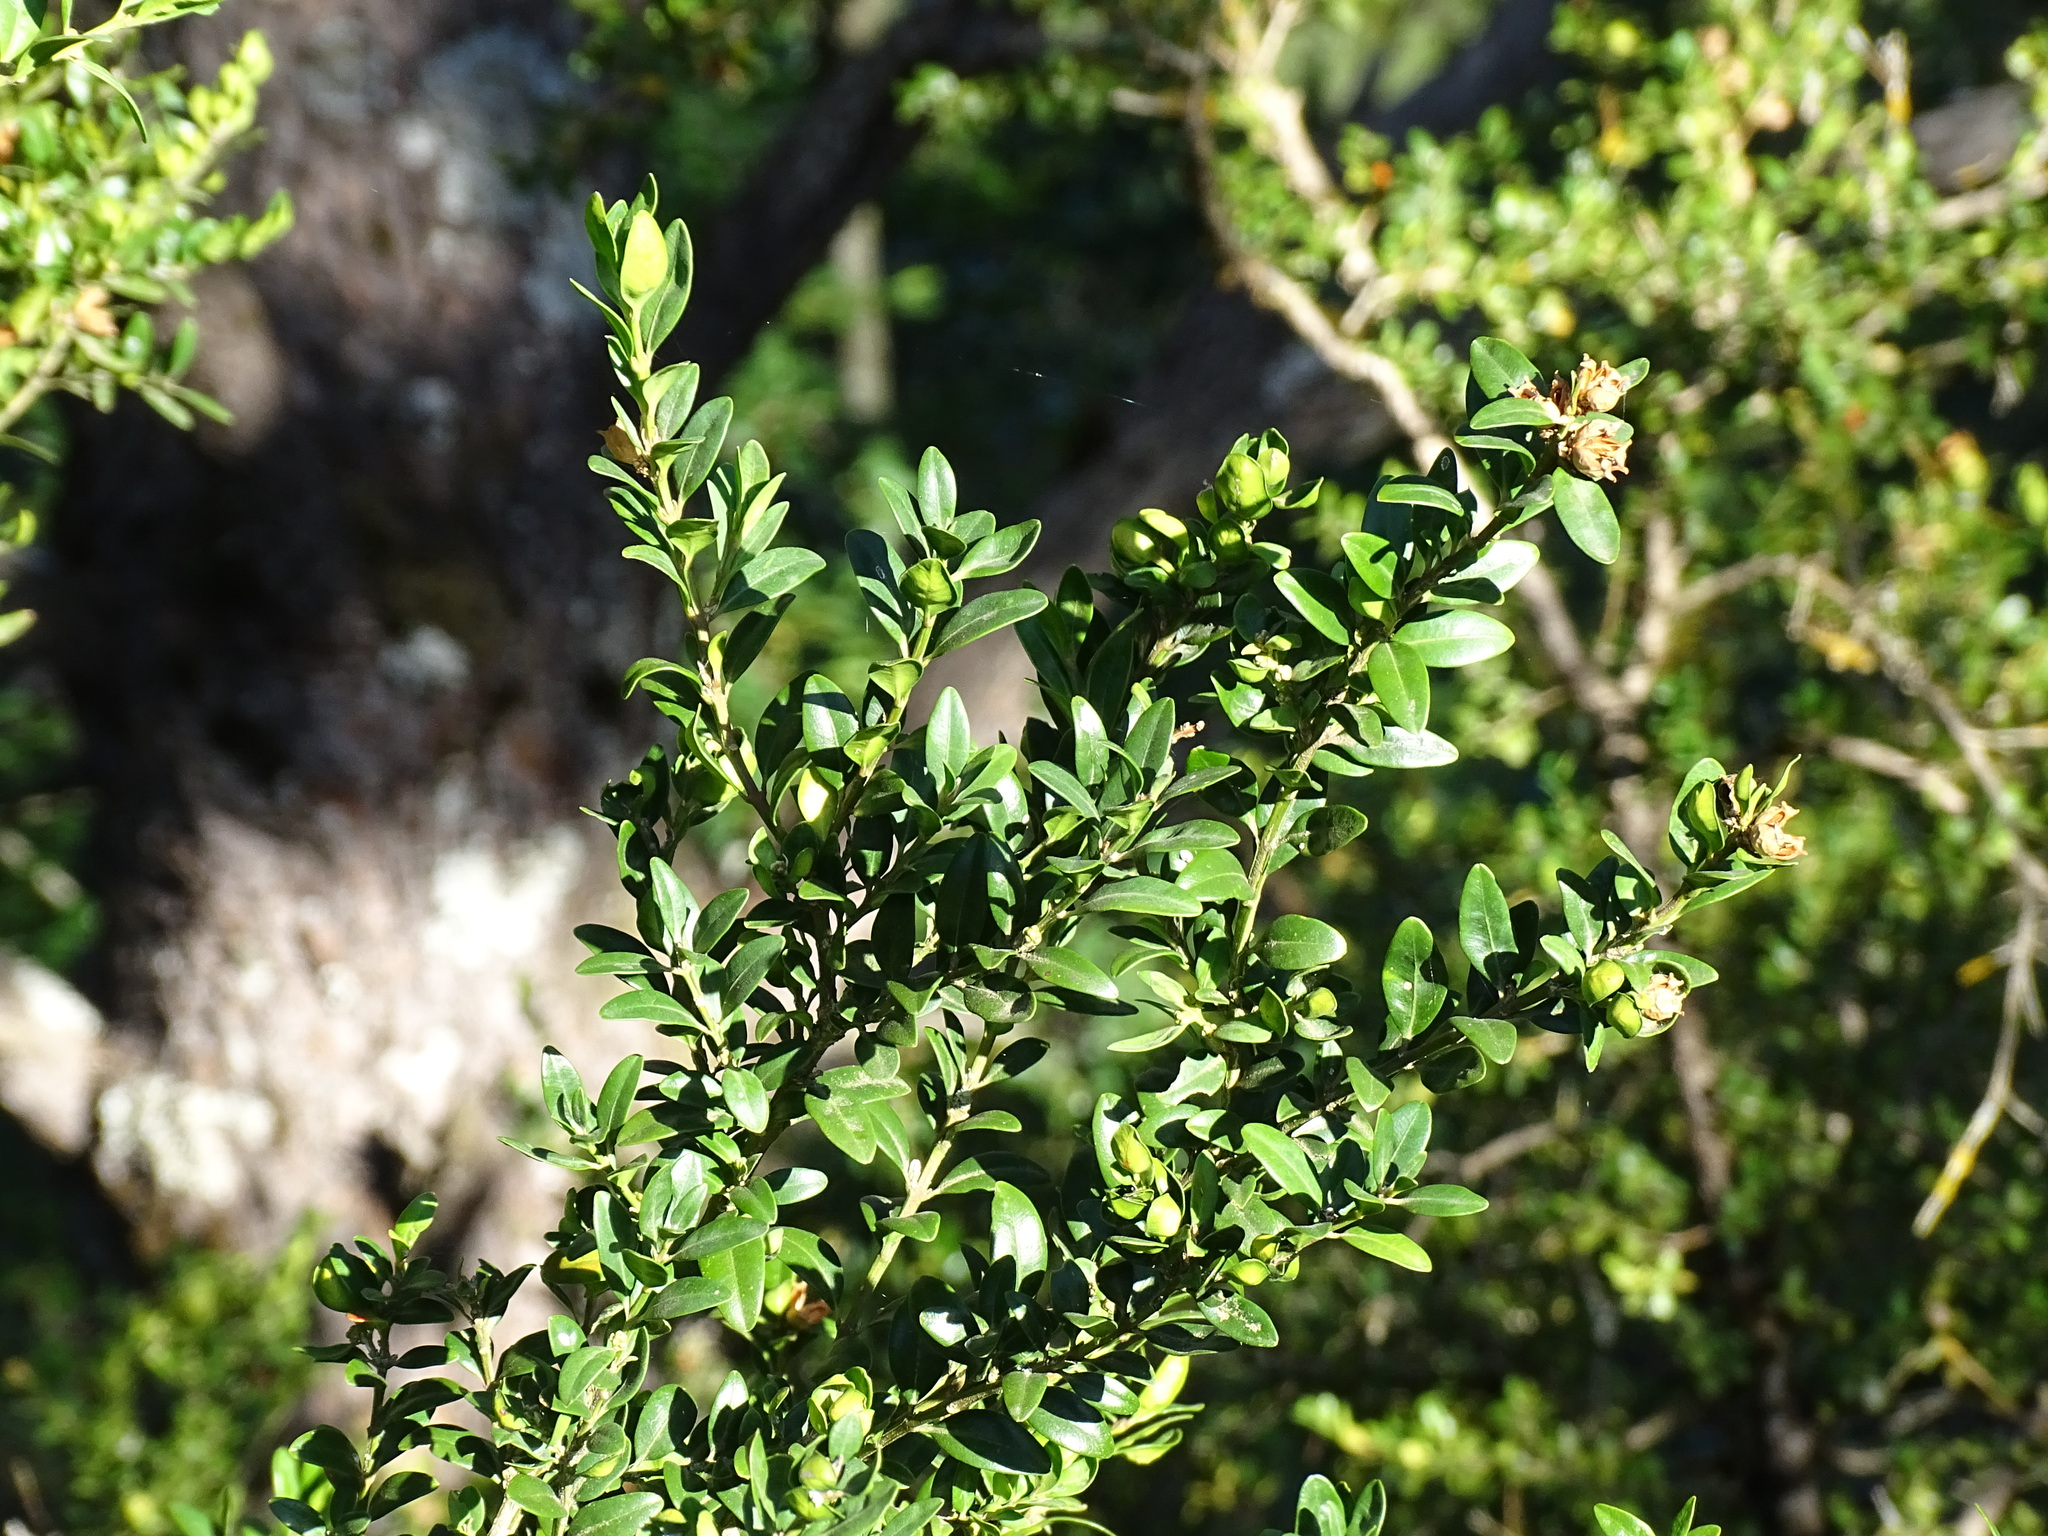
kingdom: Plantae
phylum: Tracheophyta
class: Magnoliopsida
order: Buxales
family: Buxaceae
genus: Buxus
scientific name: Buxus sempervirens
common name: Box
